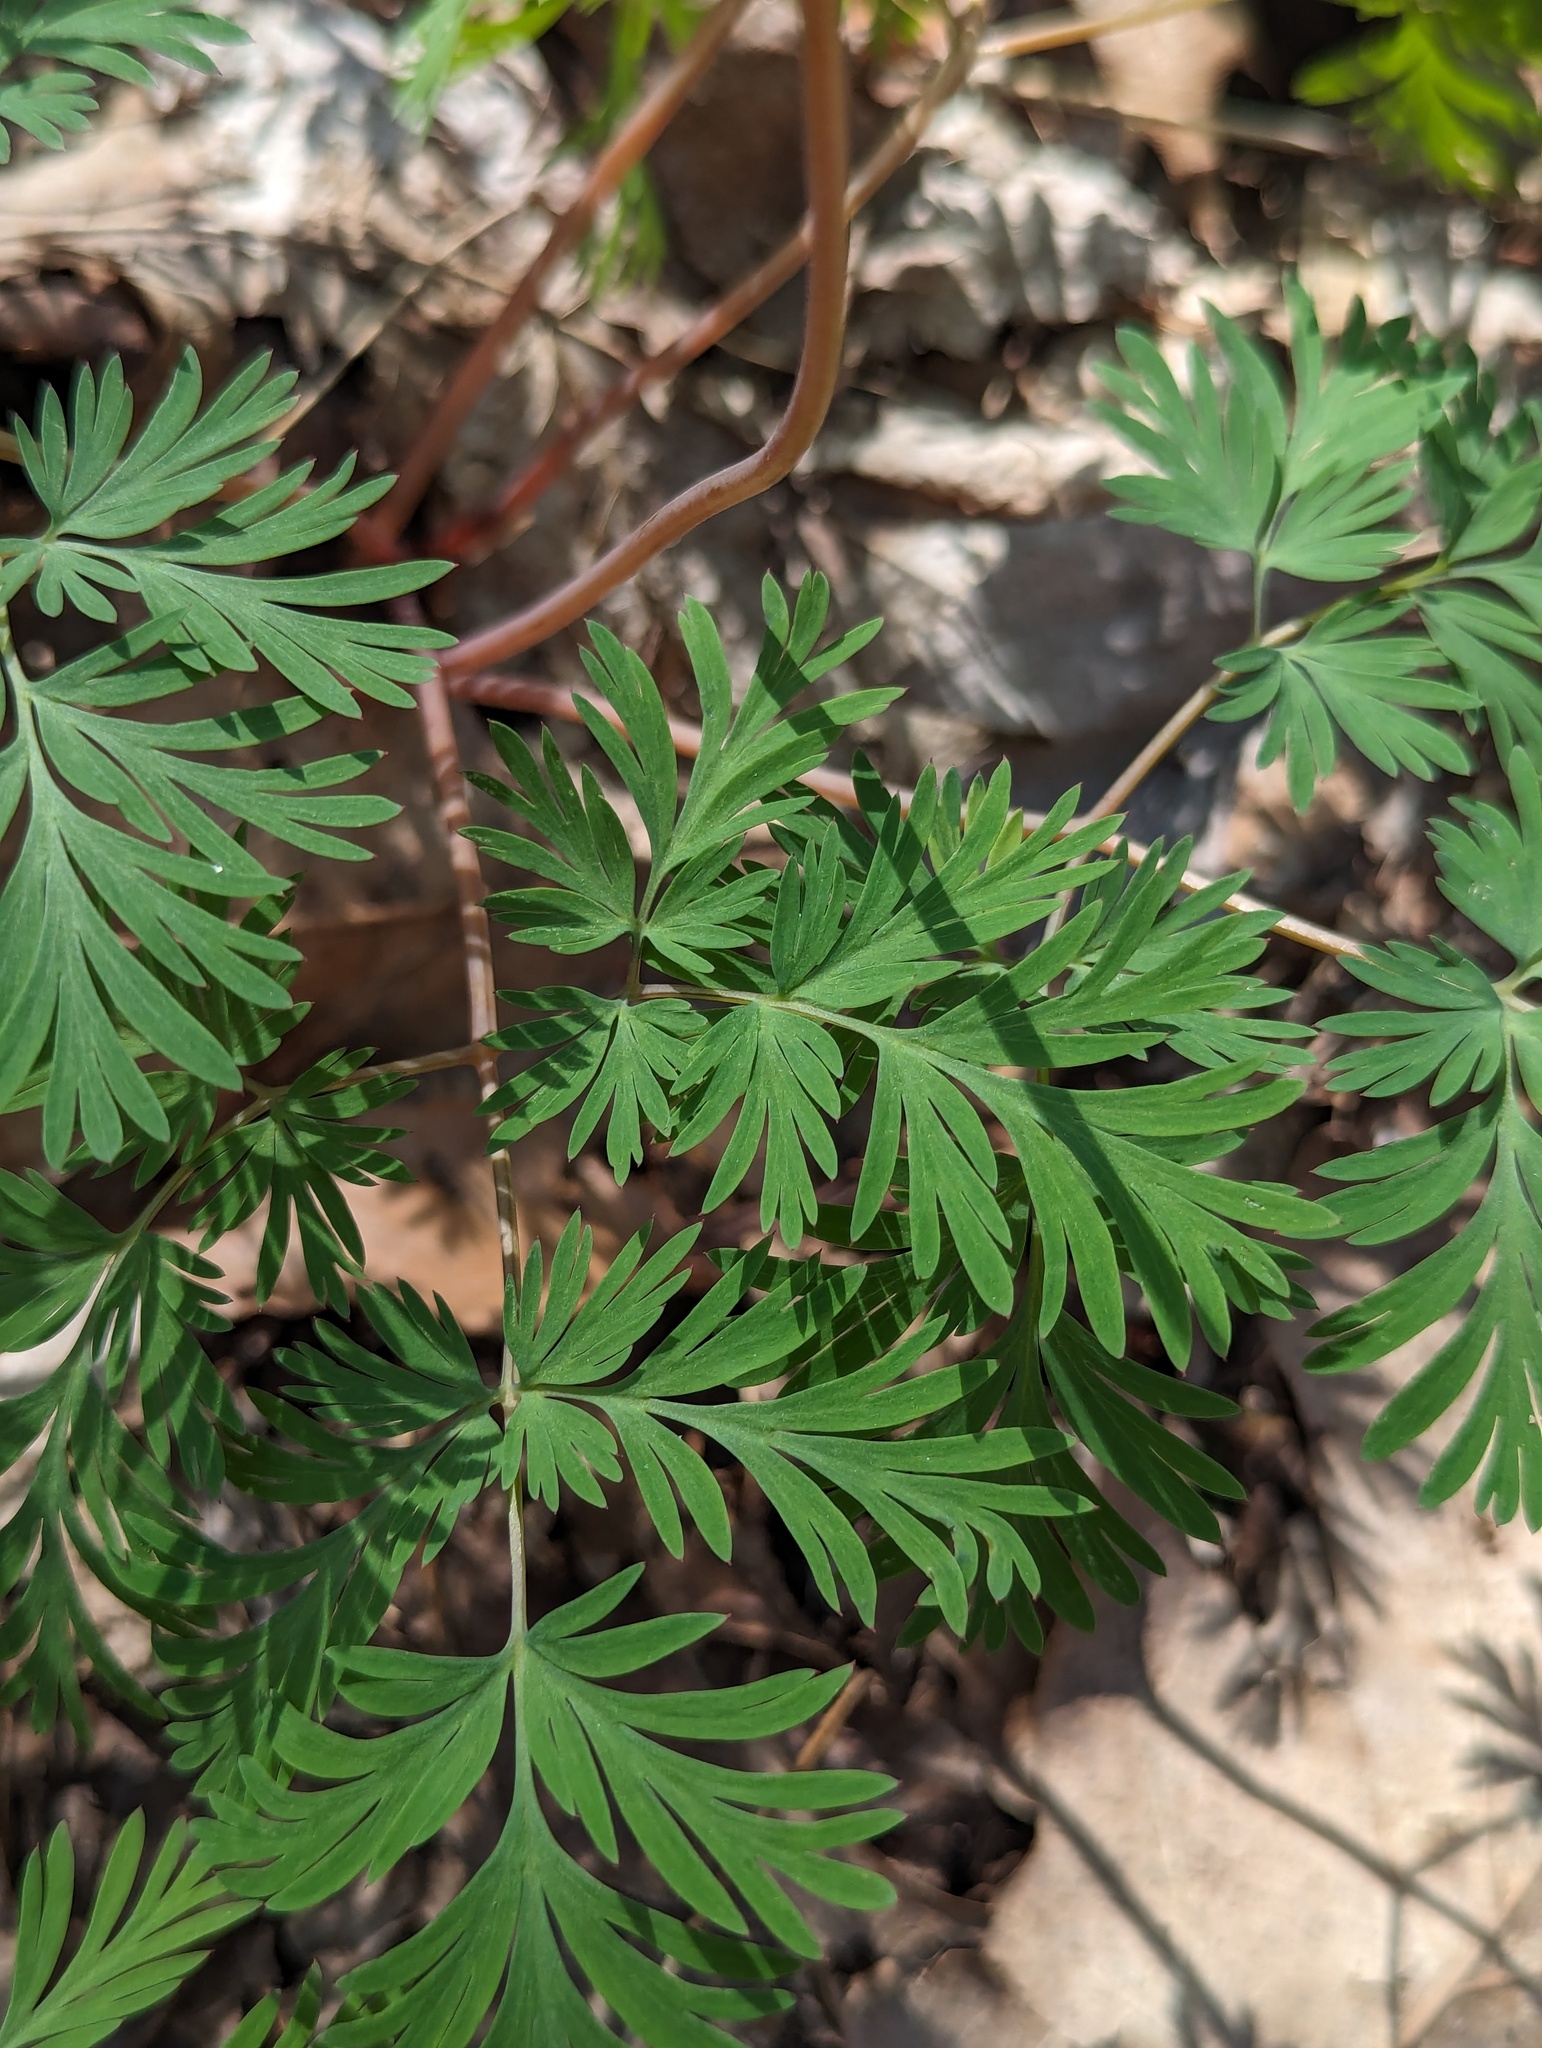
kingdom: Plantae
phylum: Tracheophyta
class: Magnoliopsida
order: Ranunculales
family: Papaveraceae
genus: Dicentra
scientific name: Dicentra cucullaria
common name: Dutchman's breeches
